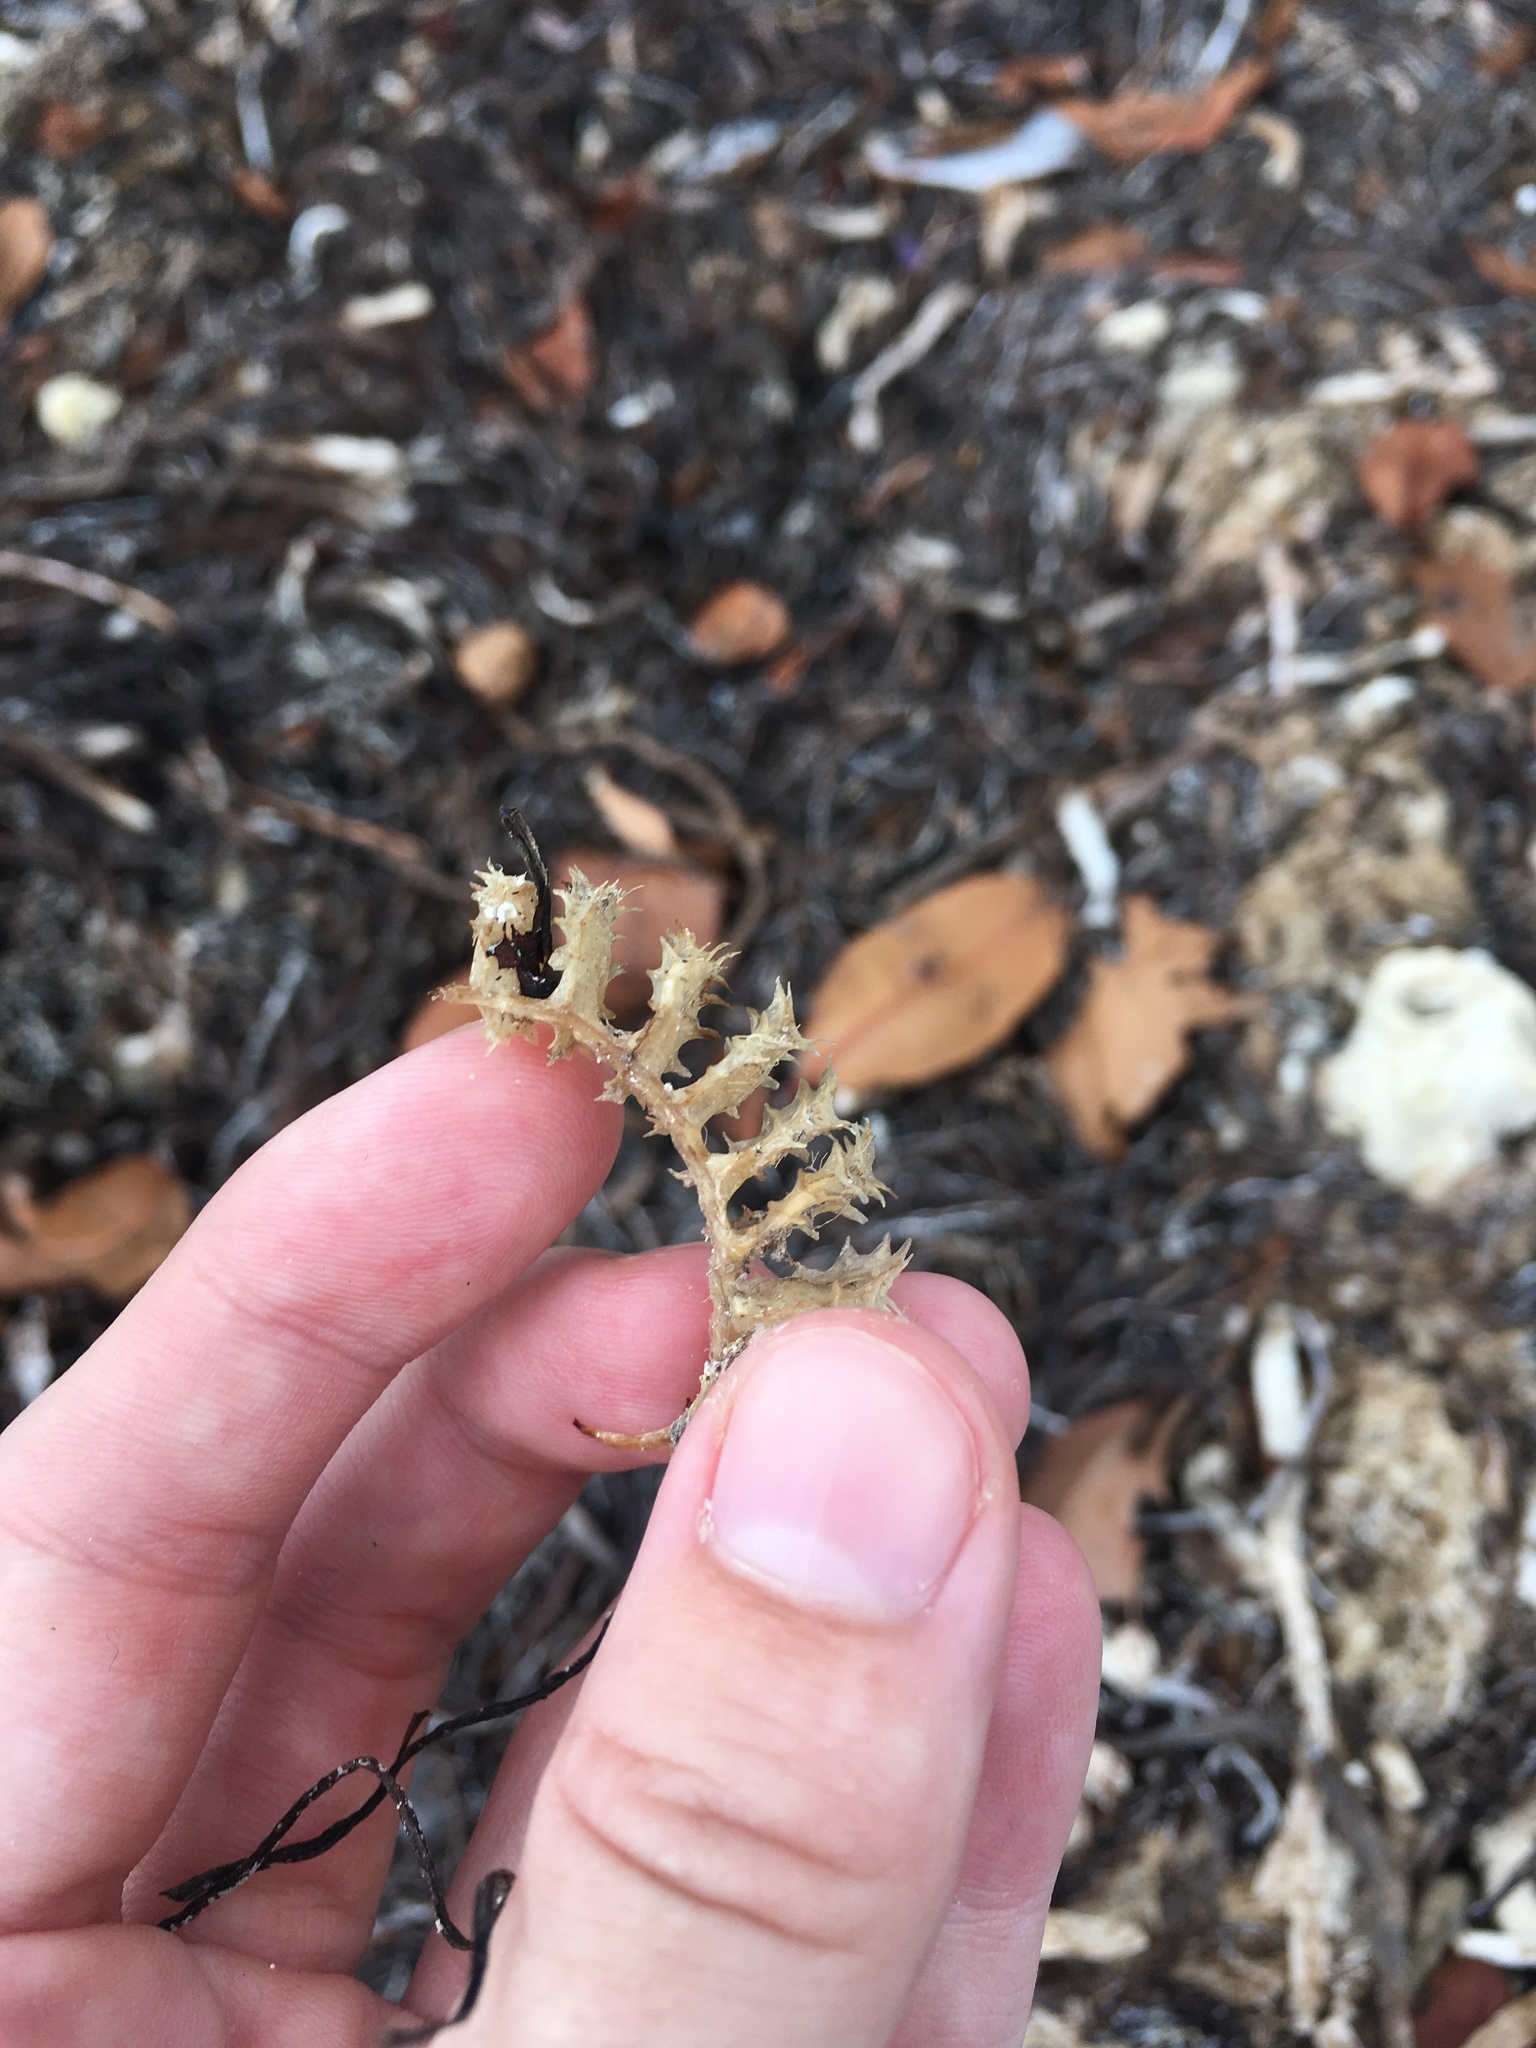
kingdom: Animalia
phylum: Mollusca
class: Gastropoda
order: Neogastropoda
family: Busyconidae
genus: Fulguropsis
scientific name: Fulguropsis pyruloides
